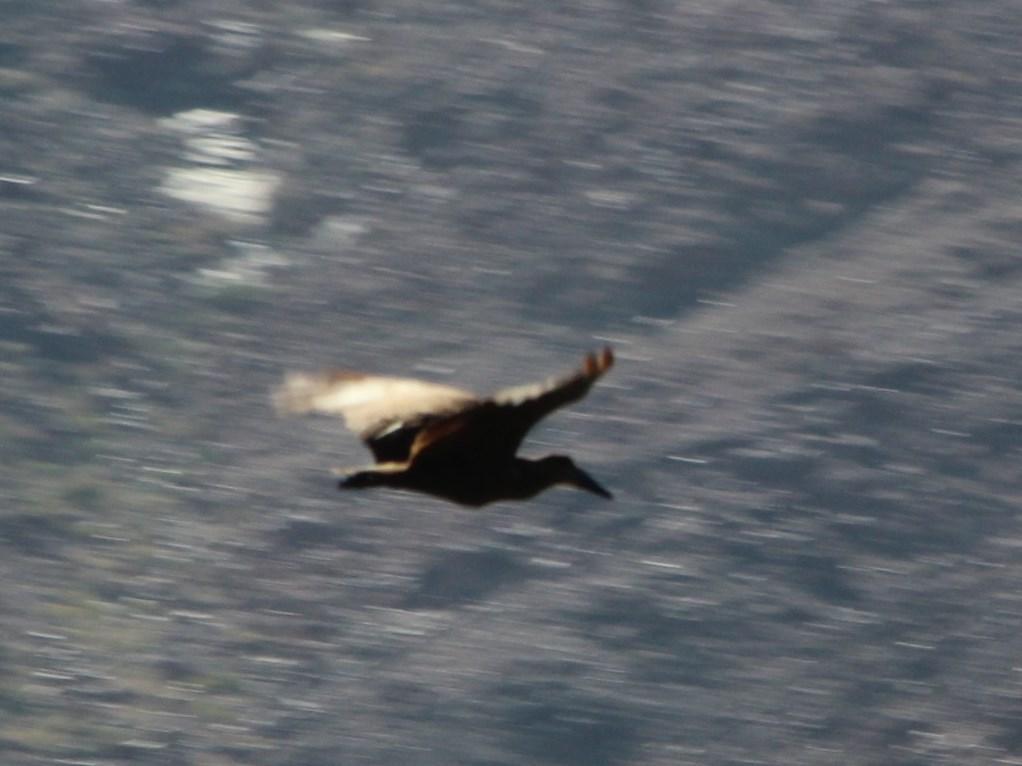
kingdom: Animalia
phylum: Chordata
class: Aves
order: Pelecaniformes
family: Scopidae
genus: Scopus
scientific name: Scopus umbretta
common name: Hamerkop
